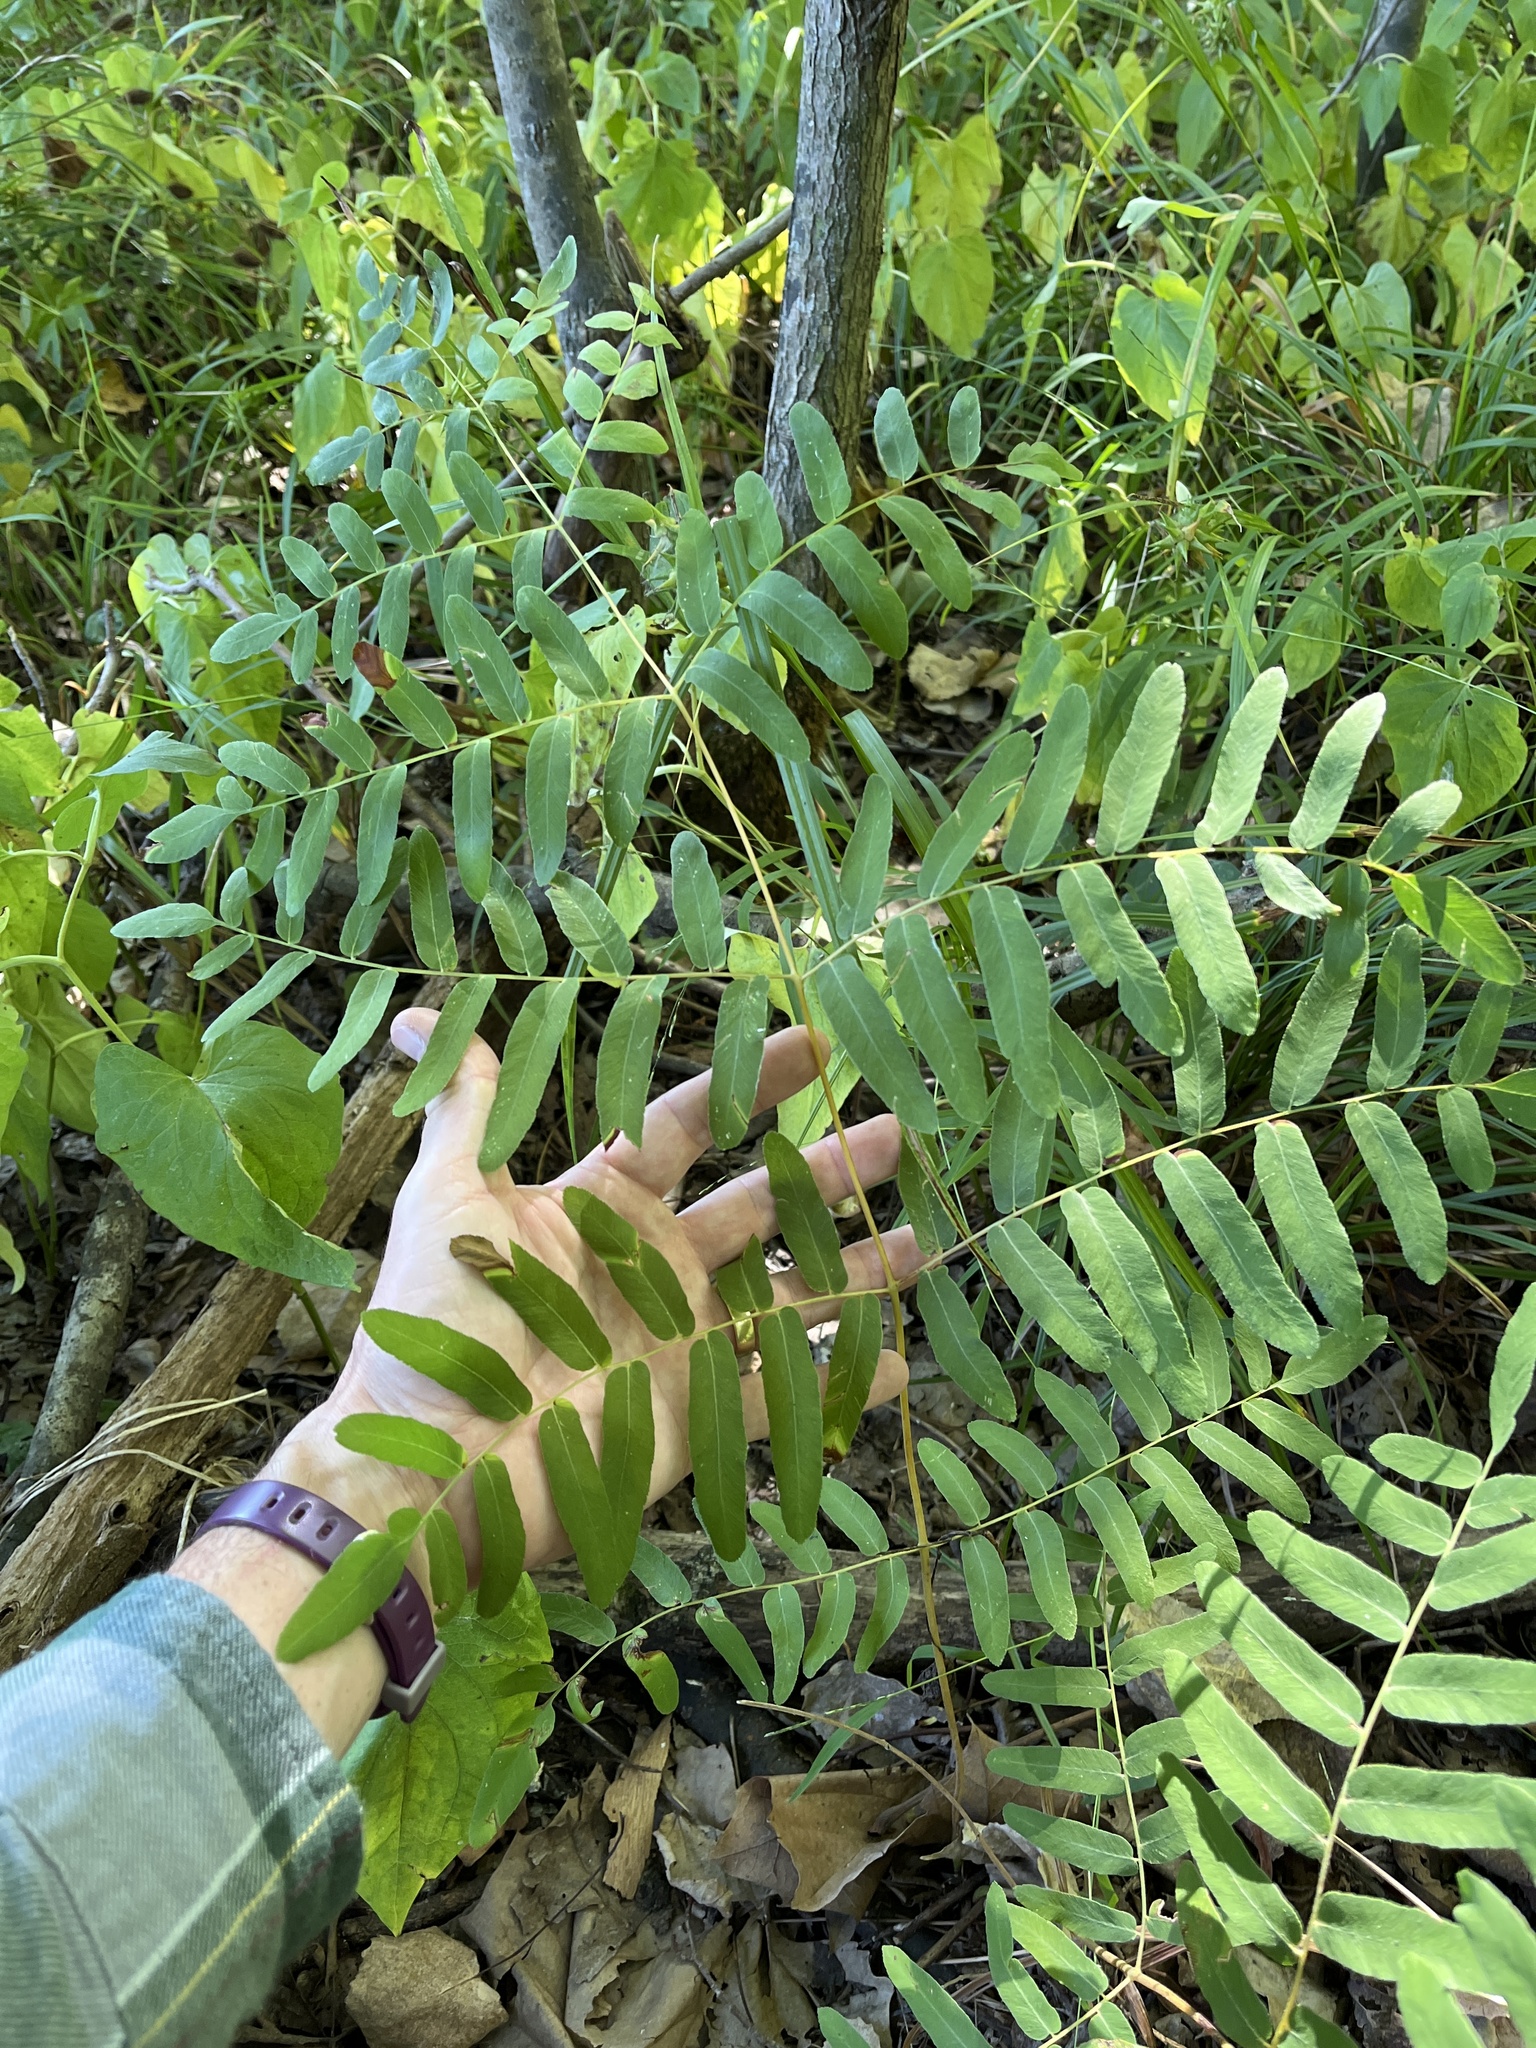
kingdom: Plantae
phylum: Tracheophyta
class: Polypodiopsida
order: Osmundales
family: Osmundaceae
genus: Osmunda
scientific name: Osmunda spectabilis
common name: American royal fern
